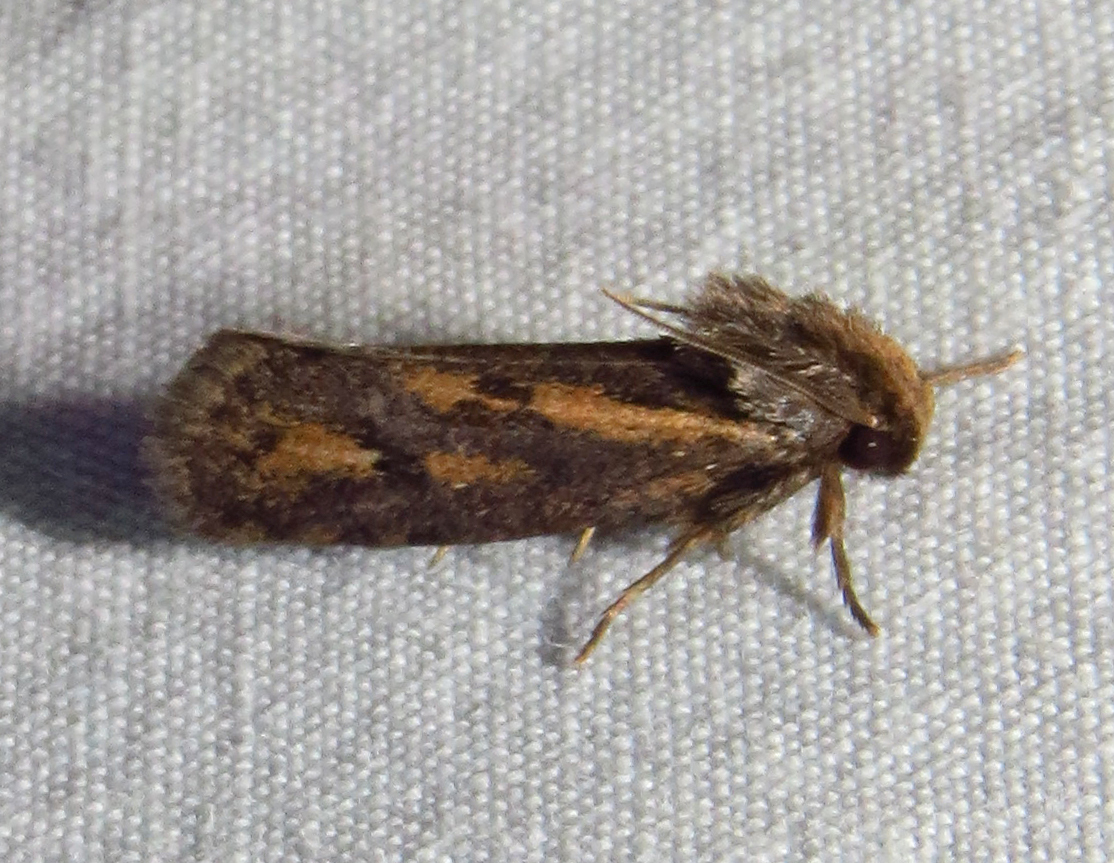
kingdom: Animalia
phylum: Arthropoda
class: Insecta
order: Lepidoptera
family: Tineidae
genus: Acrolophus
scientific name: Acrolophus popeanella
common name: Clemens' grass tubeworm moth
